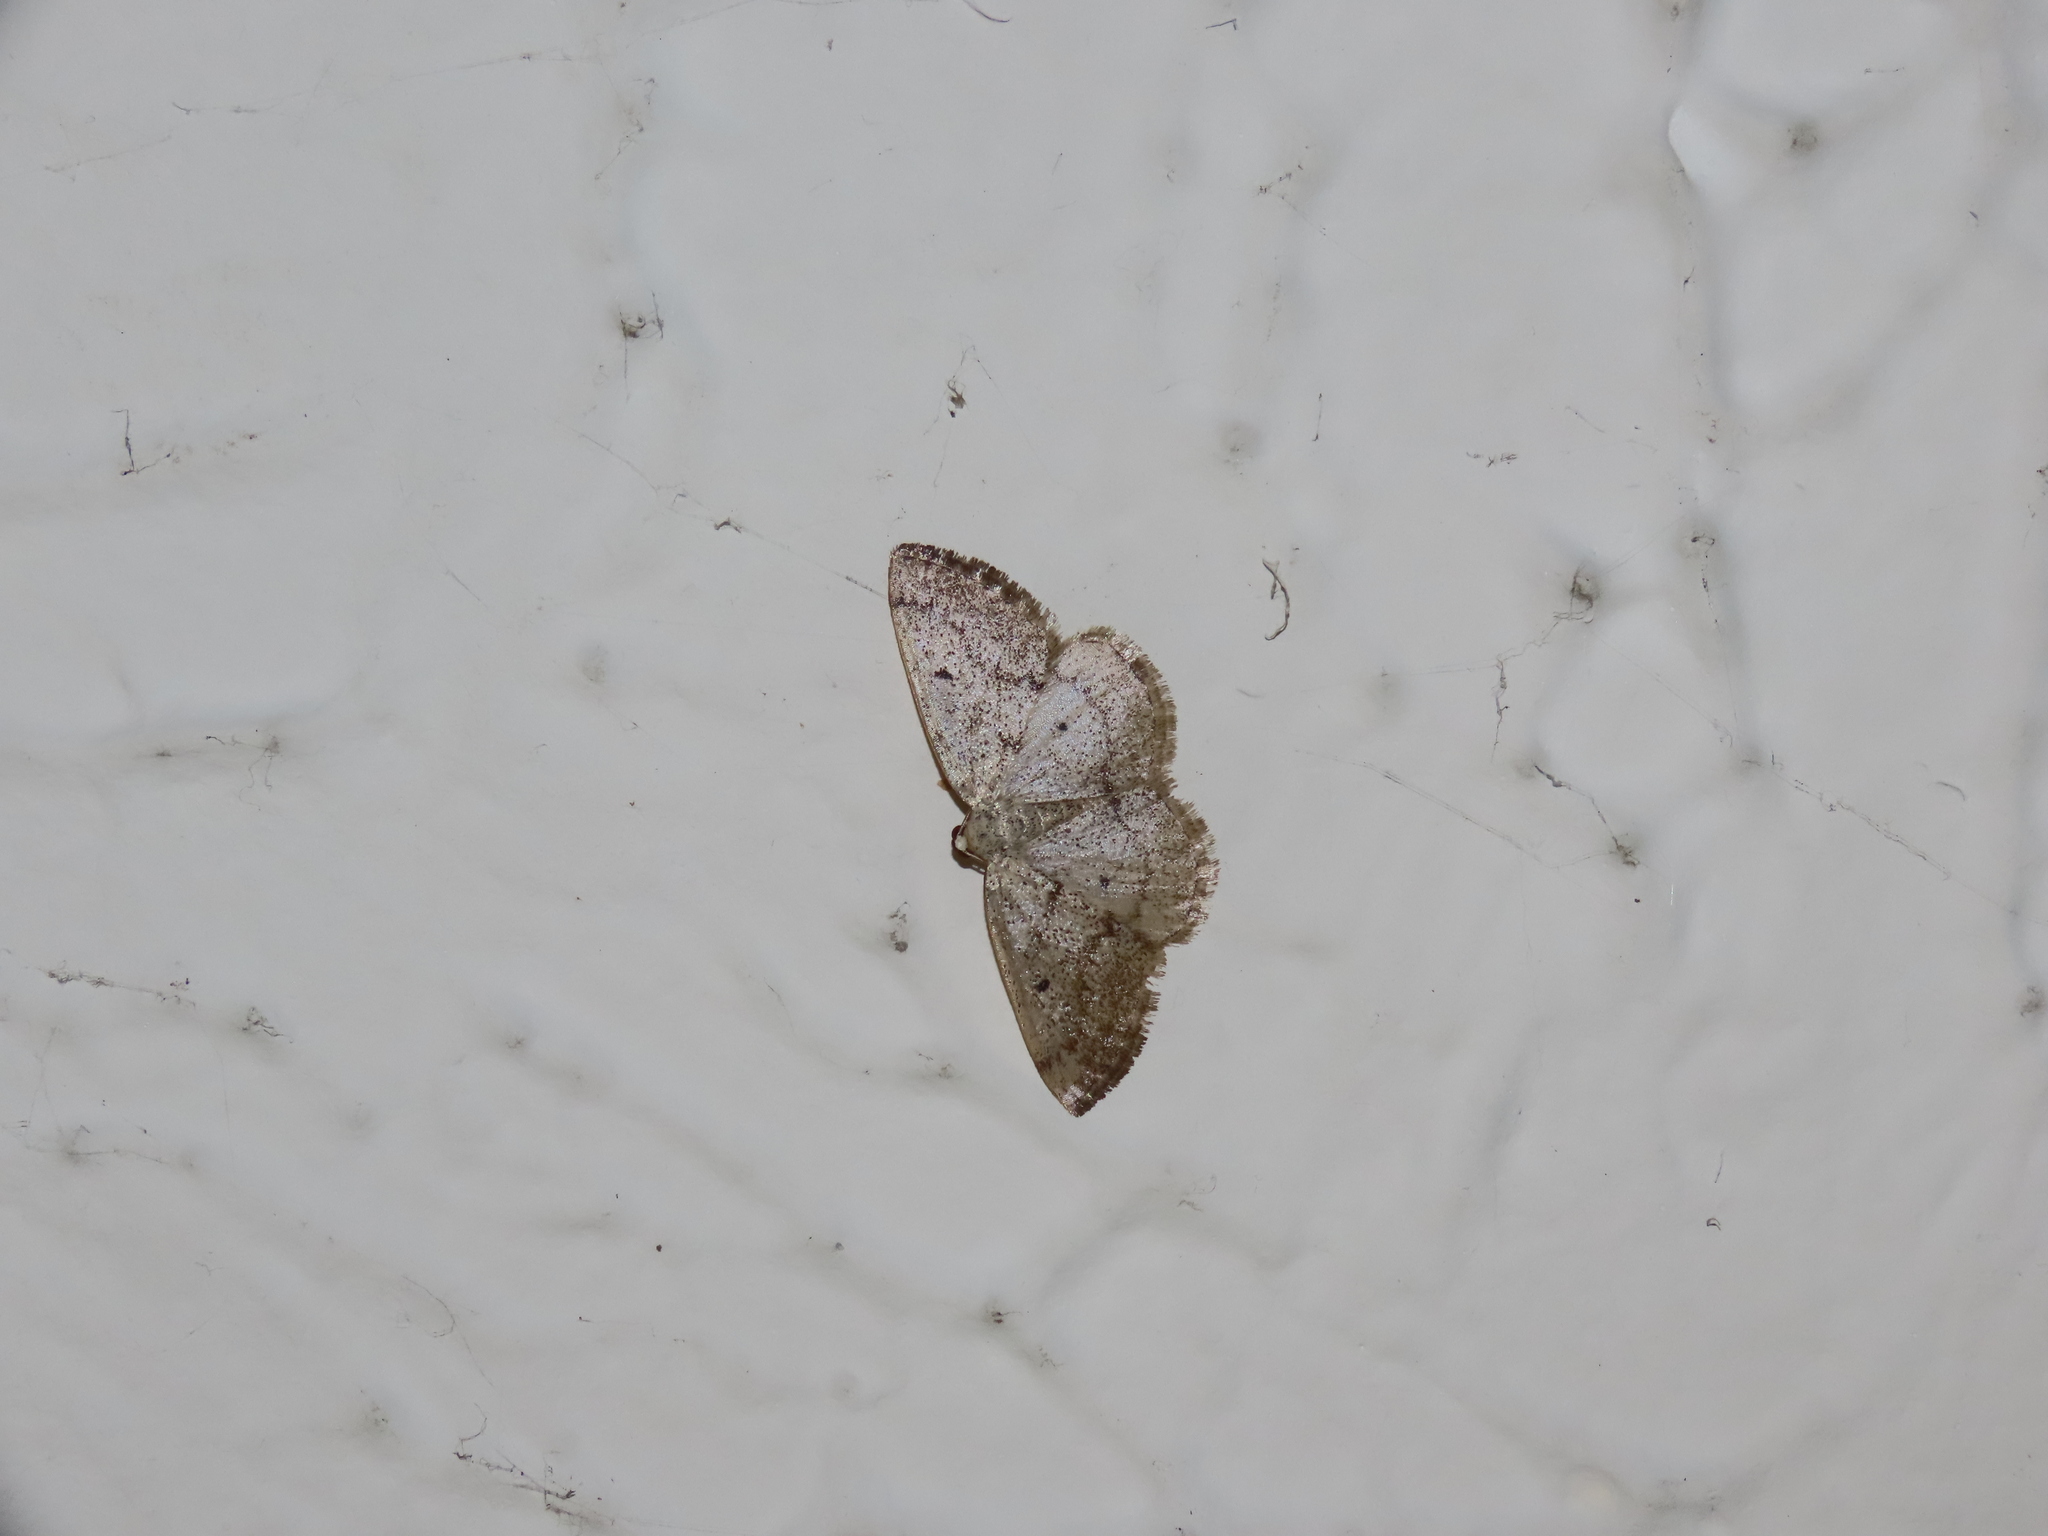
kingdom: Animalia
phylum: Arthropoda
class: Insecta
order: Lepidoptera
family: Geometridae
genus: Lomographa
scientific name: Lomographa glomeraria
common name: Gray spring moth
